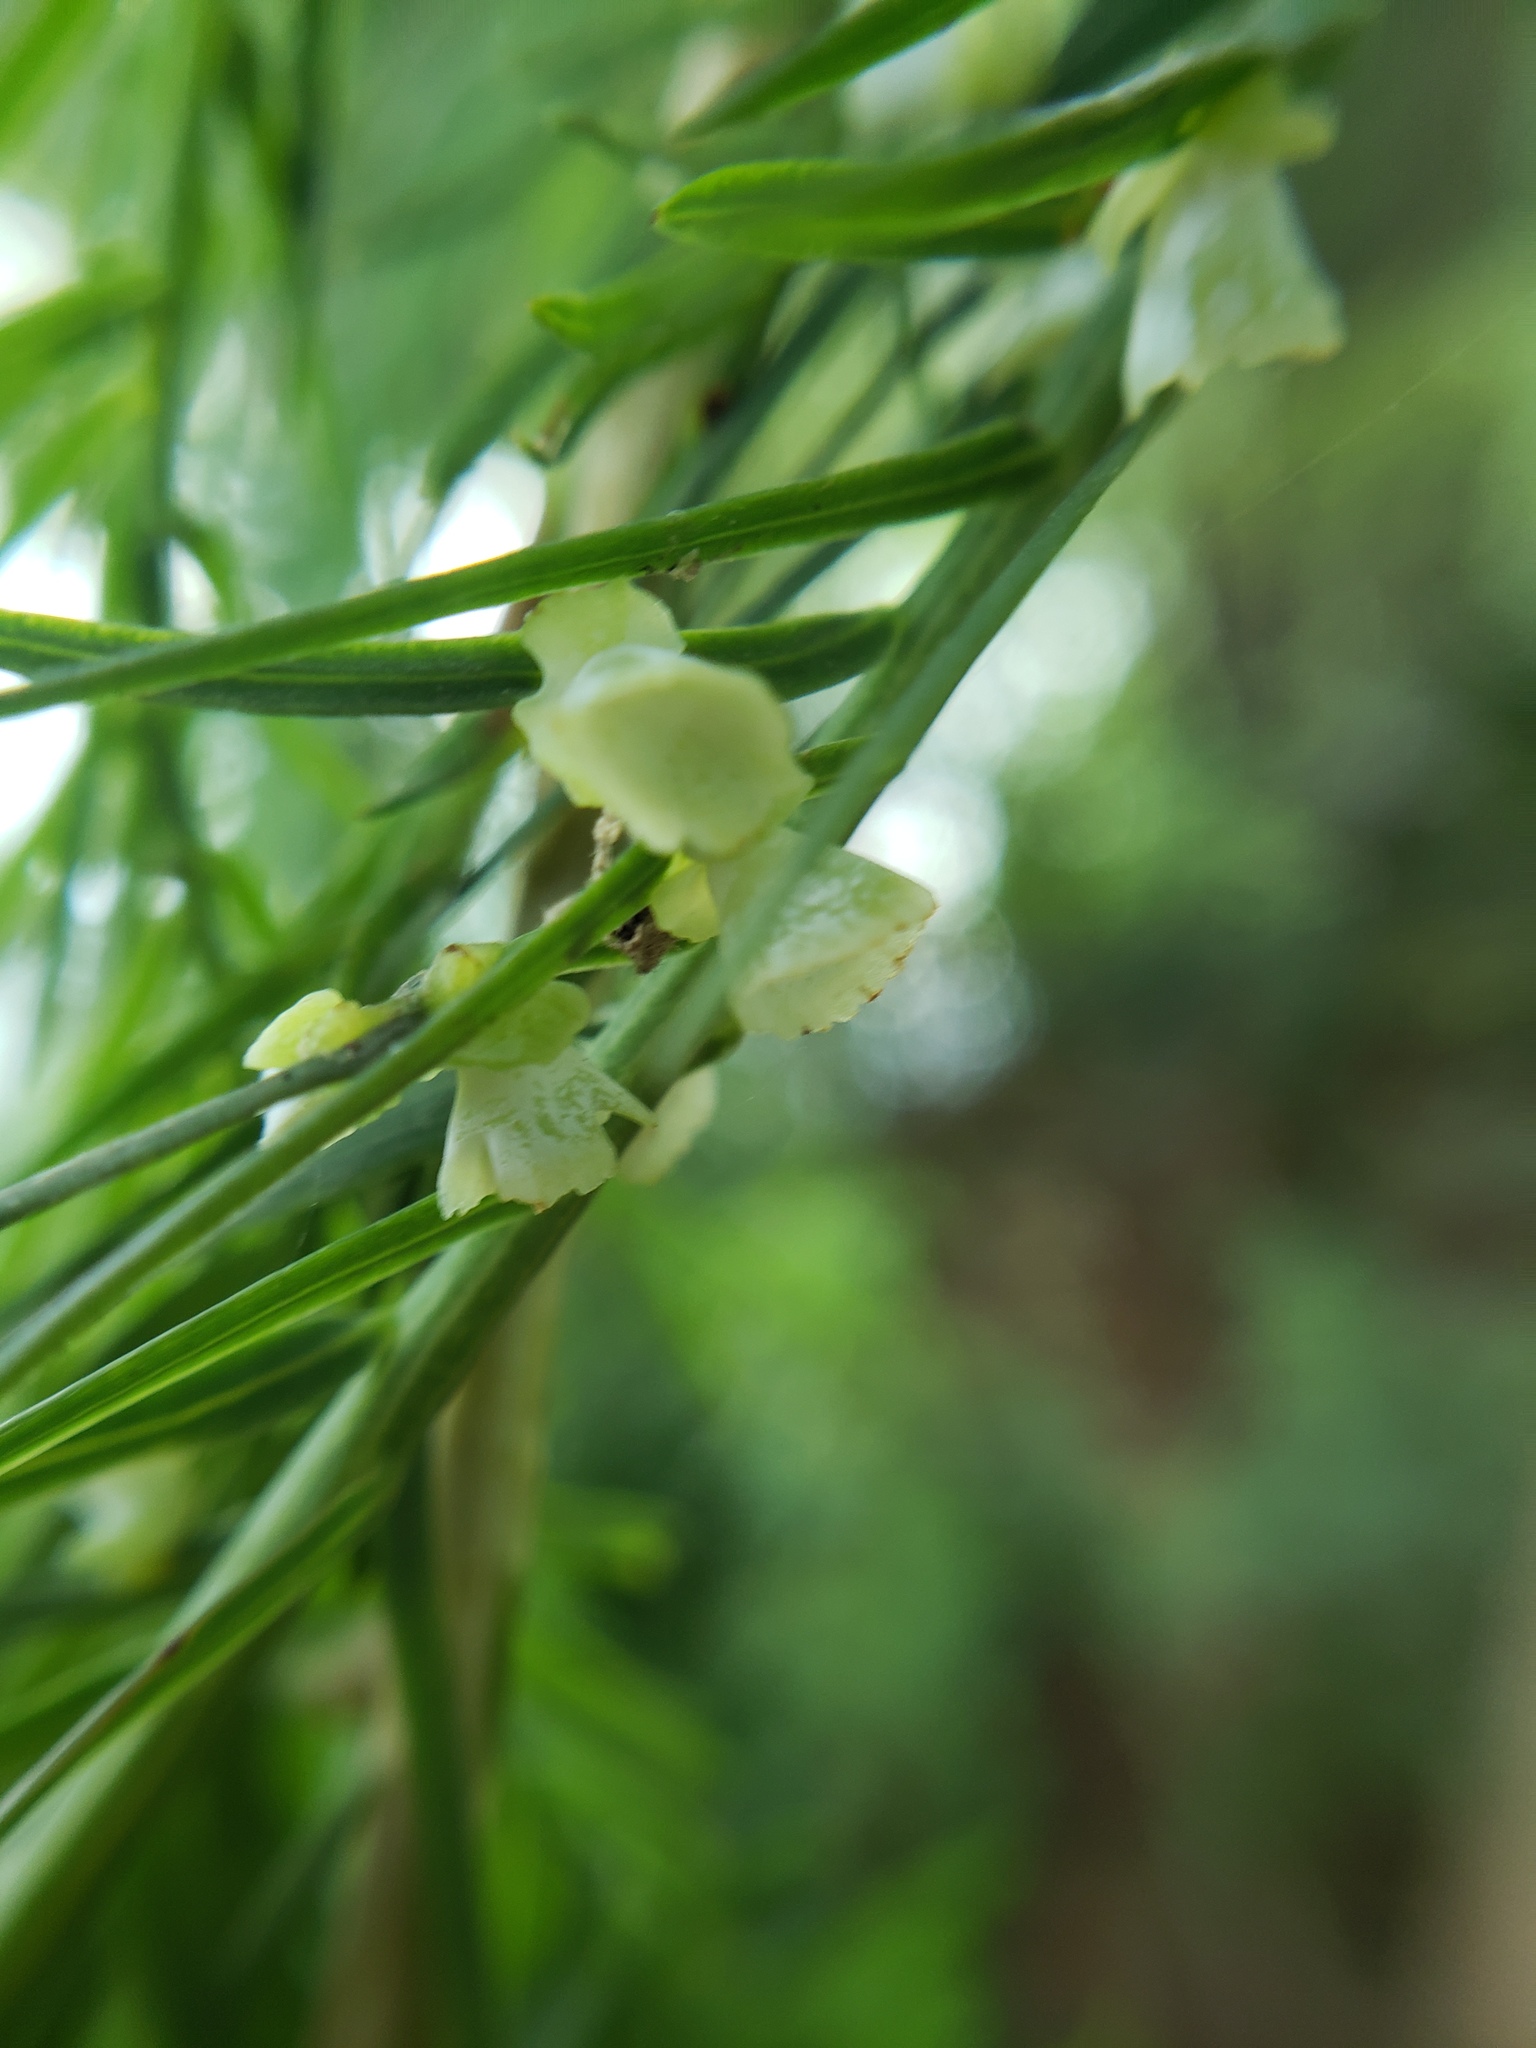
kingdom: Animalia
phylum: Arthropoda
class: Insecta
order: Diptera
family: Cecidomyiidae
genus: Taxodiomyia
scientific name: Taxodiomyia cupressi
